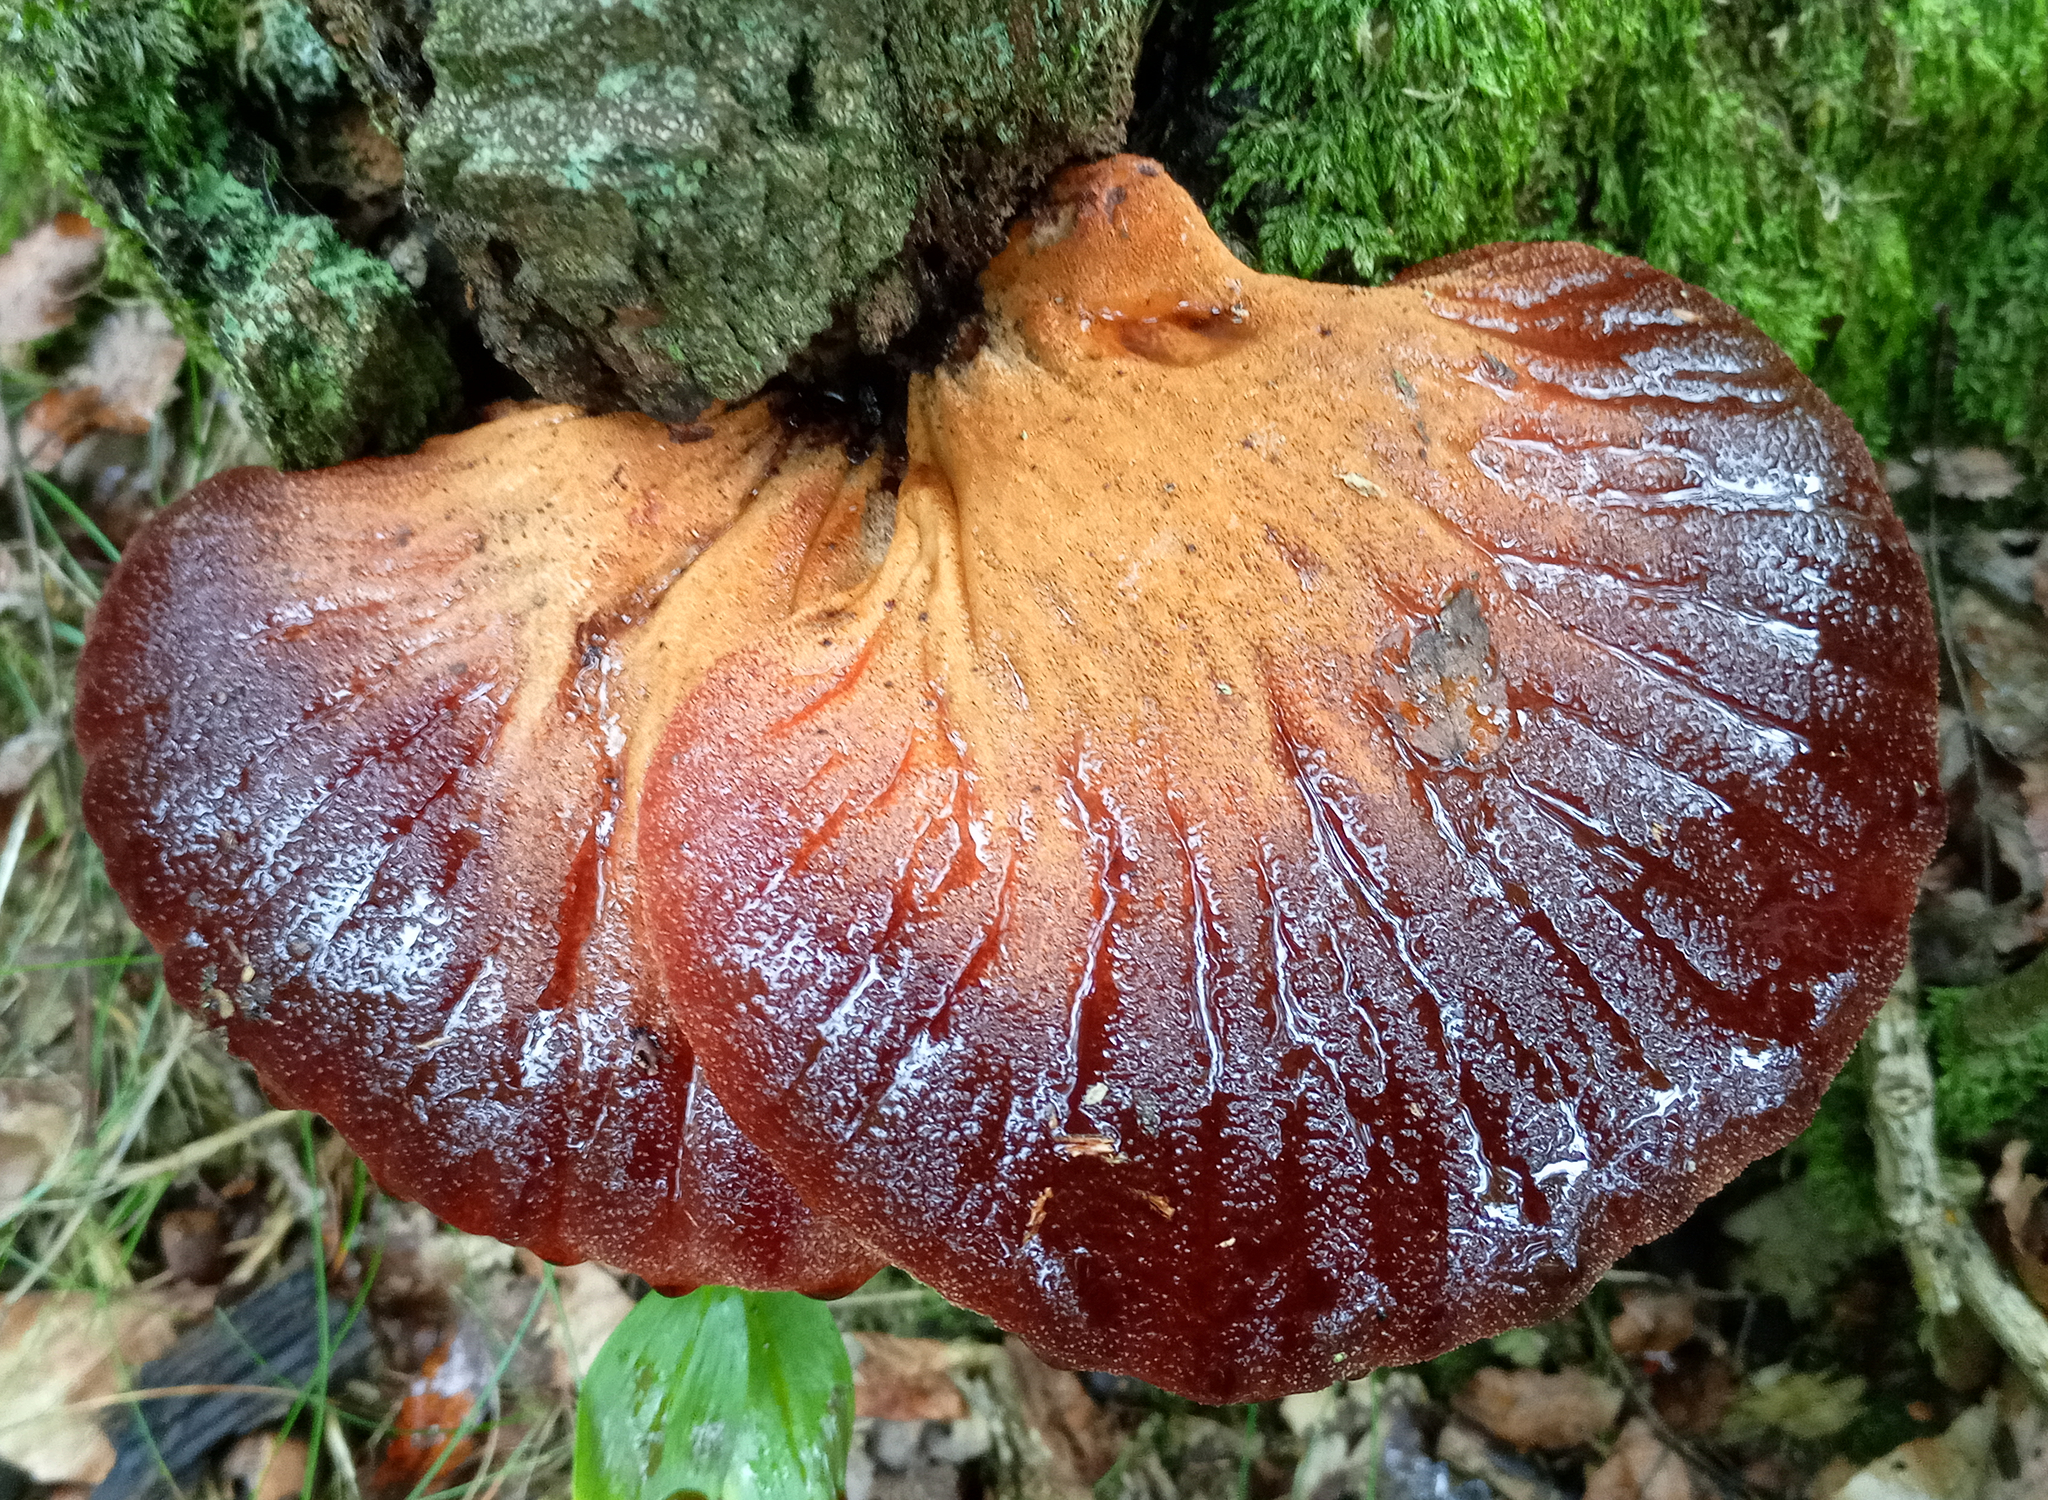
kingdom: Fungi
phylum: Basidiomycota
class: Agaricomycetes
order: Agaricales
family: Fistulinaceae
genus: Fistulina
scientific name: Fistulina hepatica
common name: Beef-steak fungus
